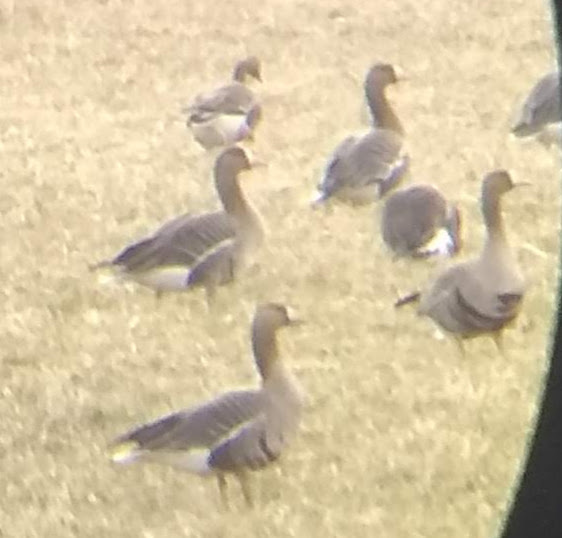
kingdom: Animalia
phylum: Chordata
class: Aves
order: Anseriformes
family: Anatidae
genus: Anser
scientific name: Anser albifrons
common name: Greater white-fronted goose
